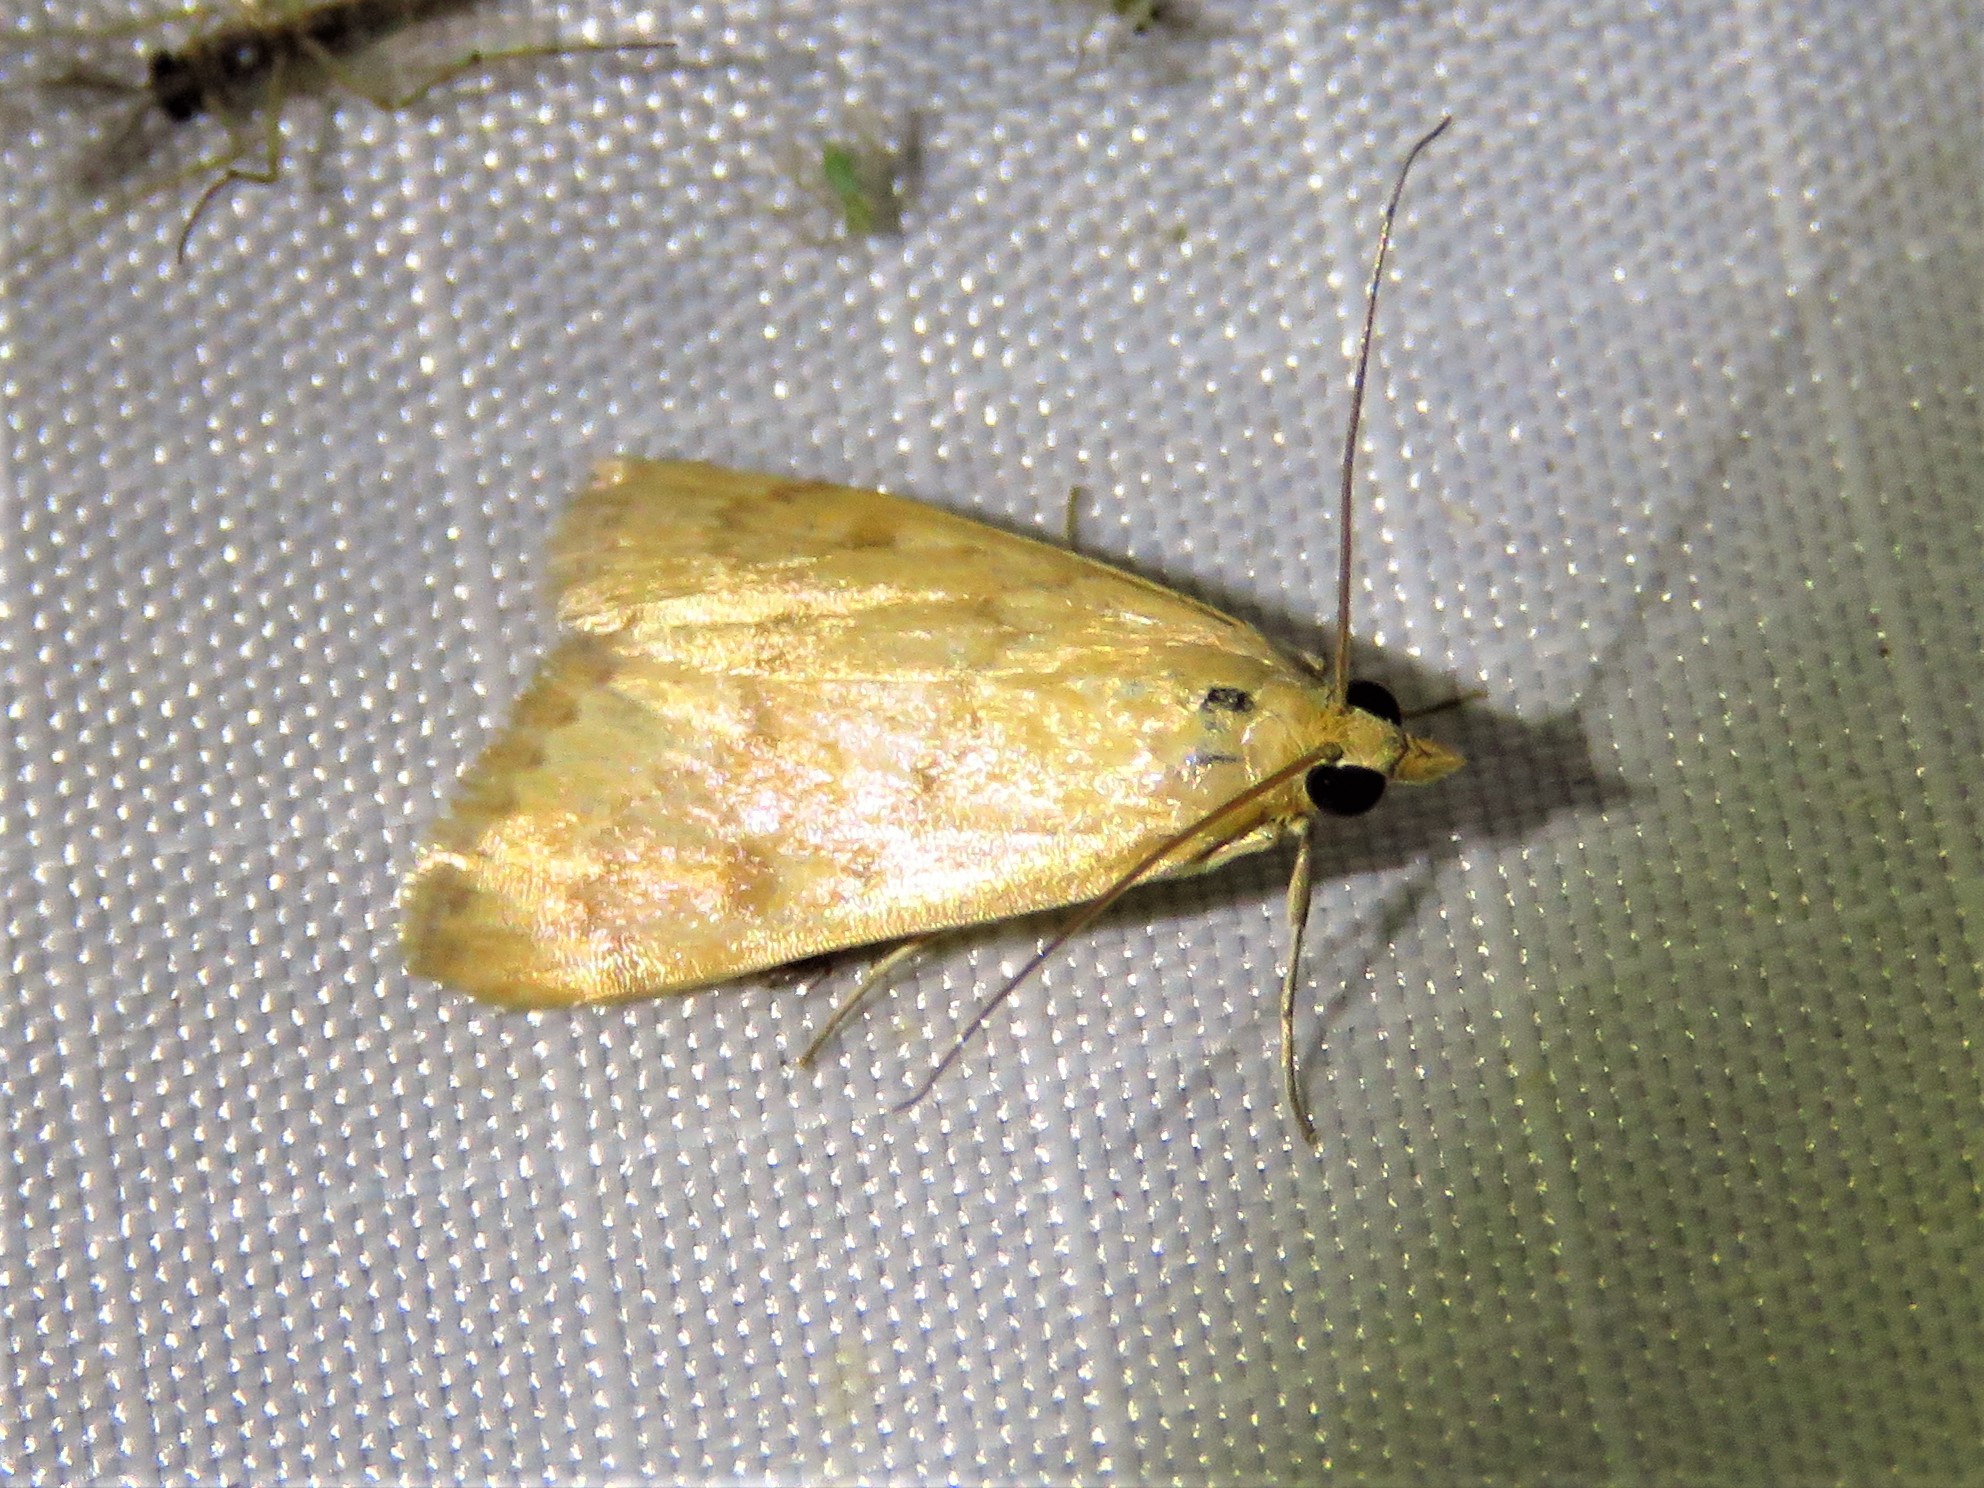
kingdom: Animalia
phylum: Arthropoda
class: Insecta
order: Lepidoptera
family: Crambidae
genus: Achyra
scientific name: Achyra rantalis
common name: Garden webworm
